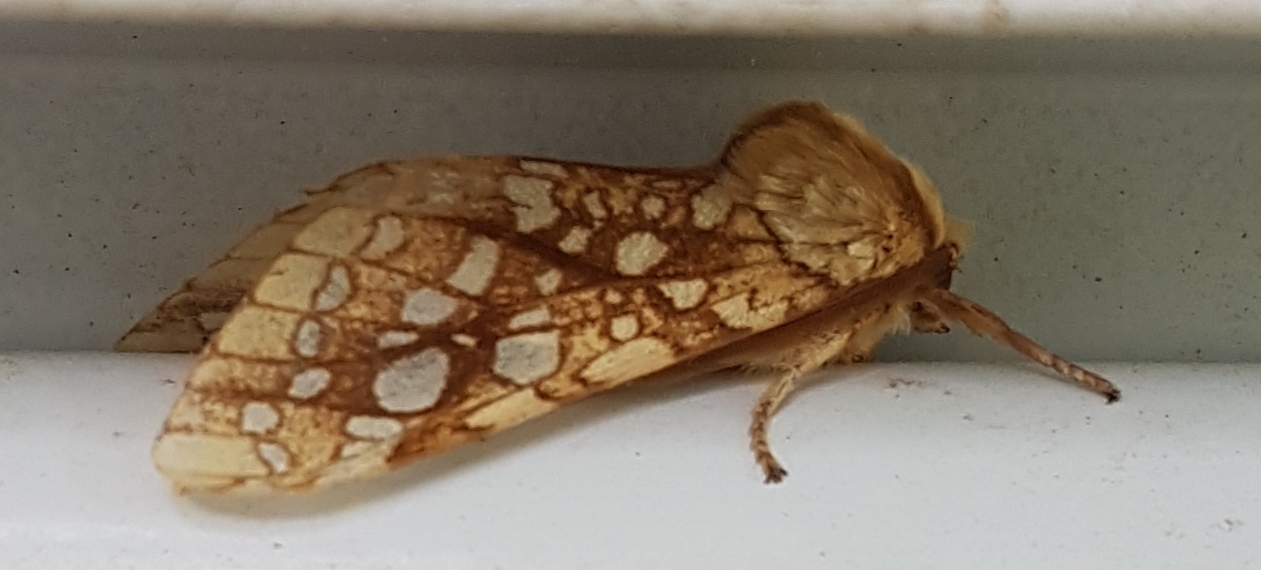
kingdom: Animalia
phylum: Arthropoda
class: Insecta
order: Lepidoptera
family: Erebidae
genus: Lophocampa
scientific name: Lophocampa caryae
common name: Hickory tussock moth
